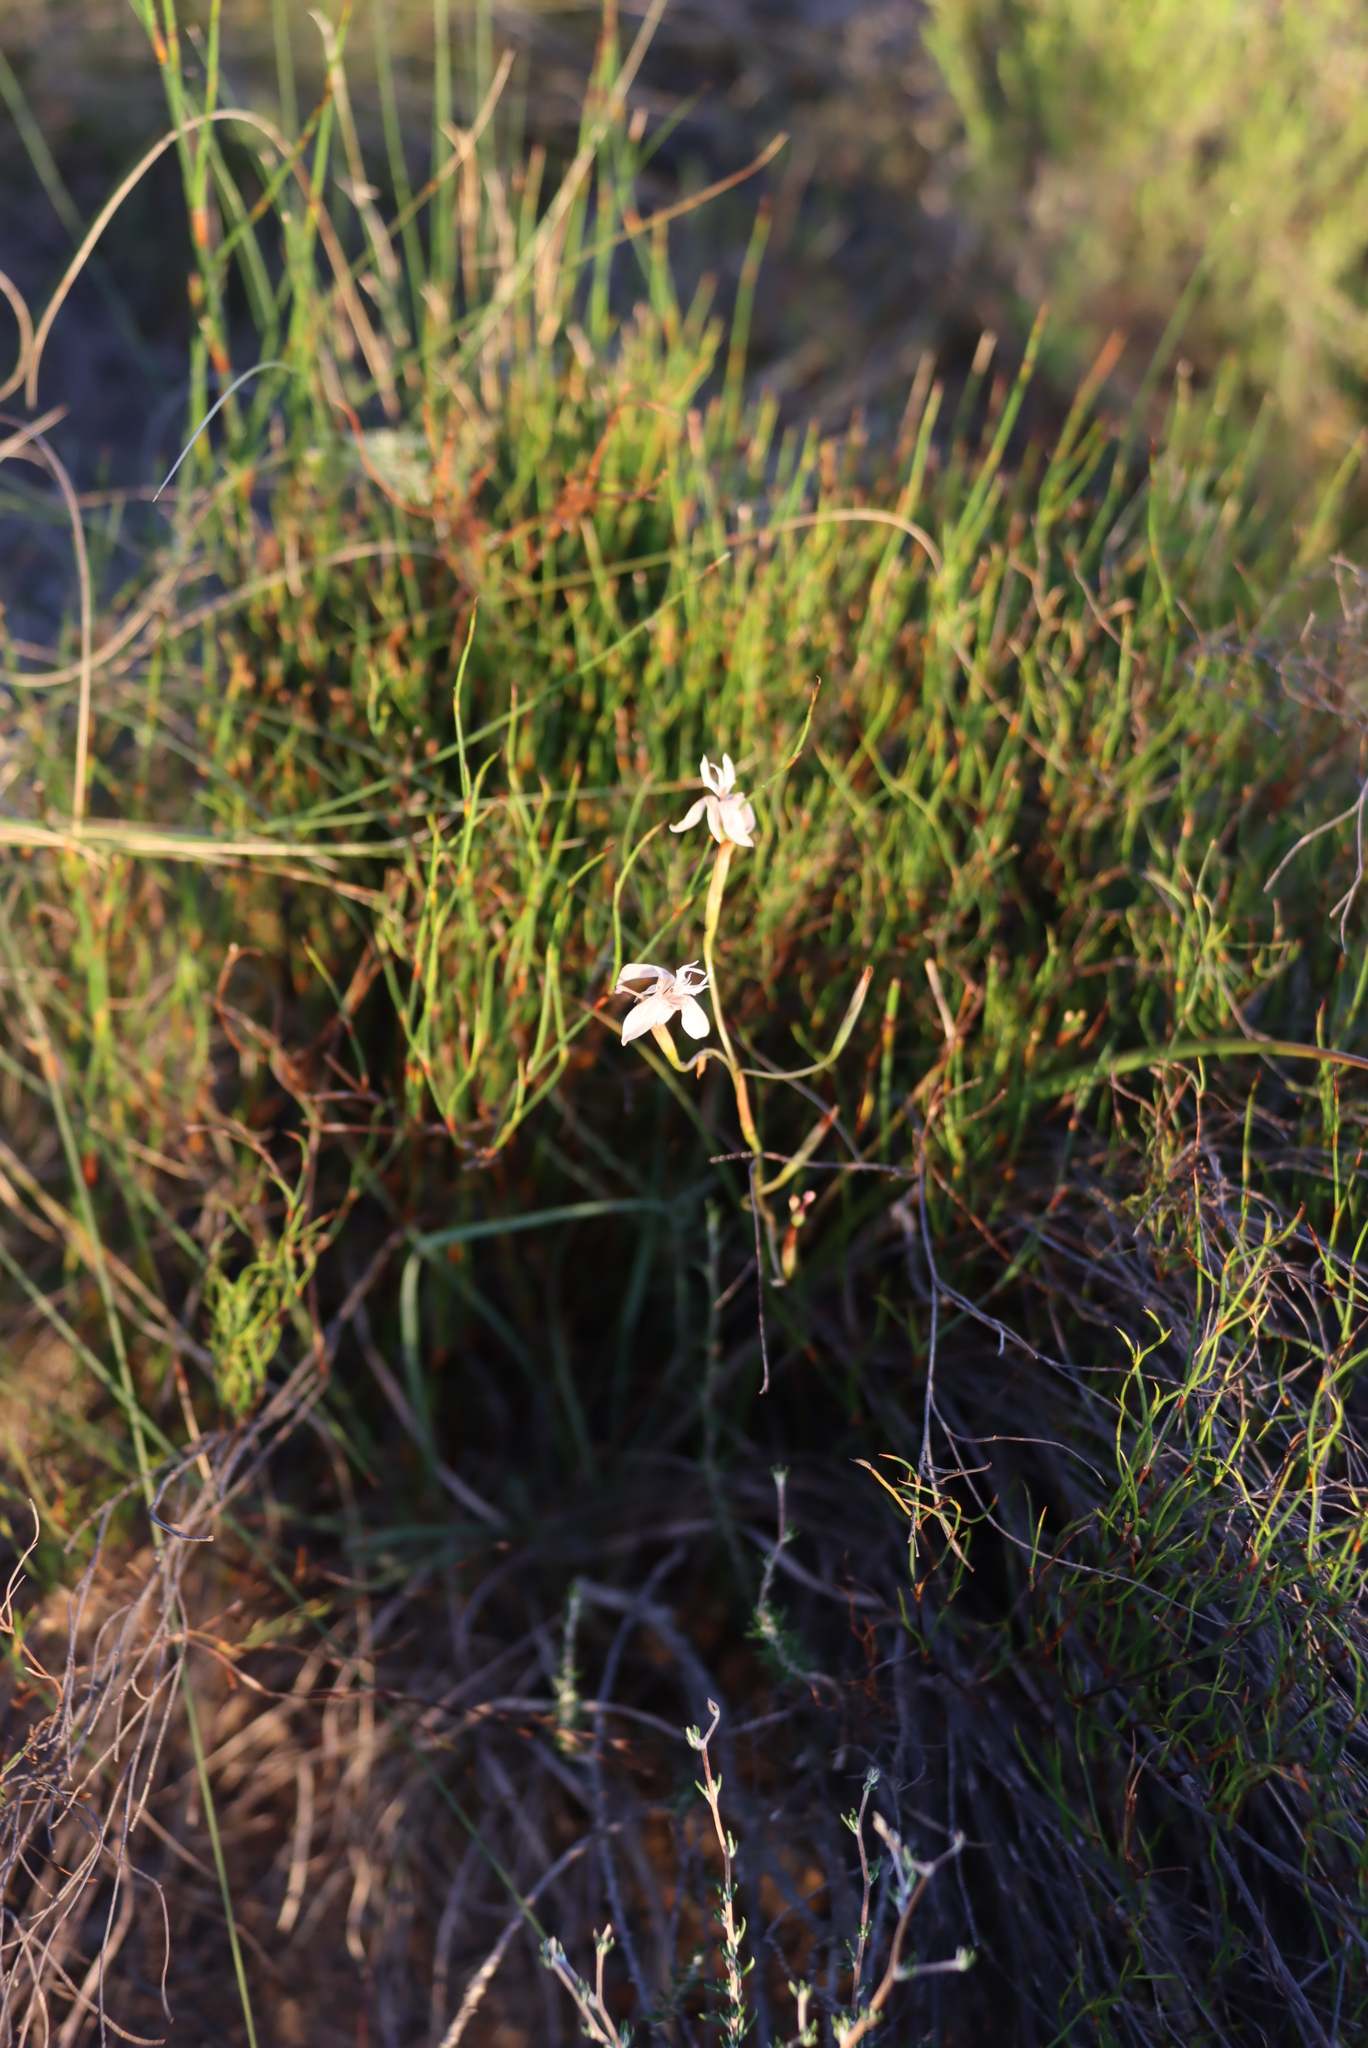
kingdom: Plantae
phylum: Tracheophyta
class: Liliopsida
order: Asparagales
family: Iridaceae
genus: Moraea
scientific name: Moraea inconspicua
